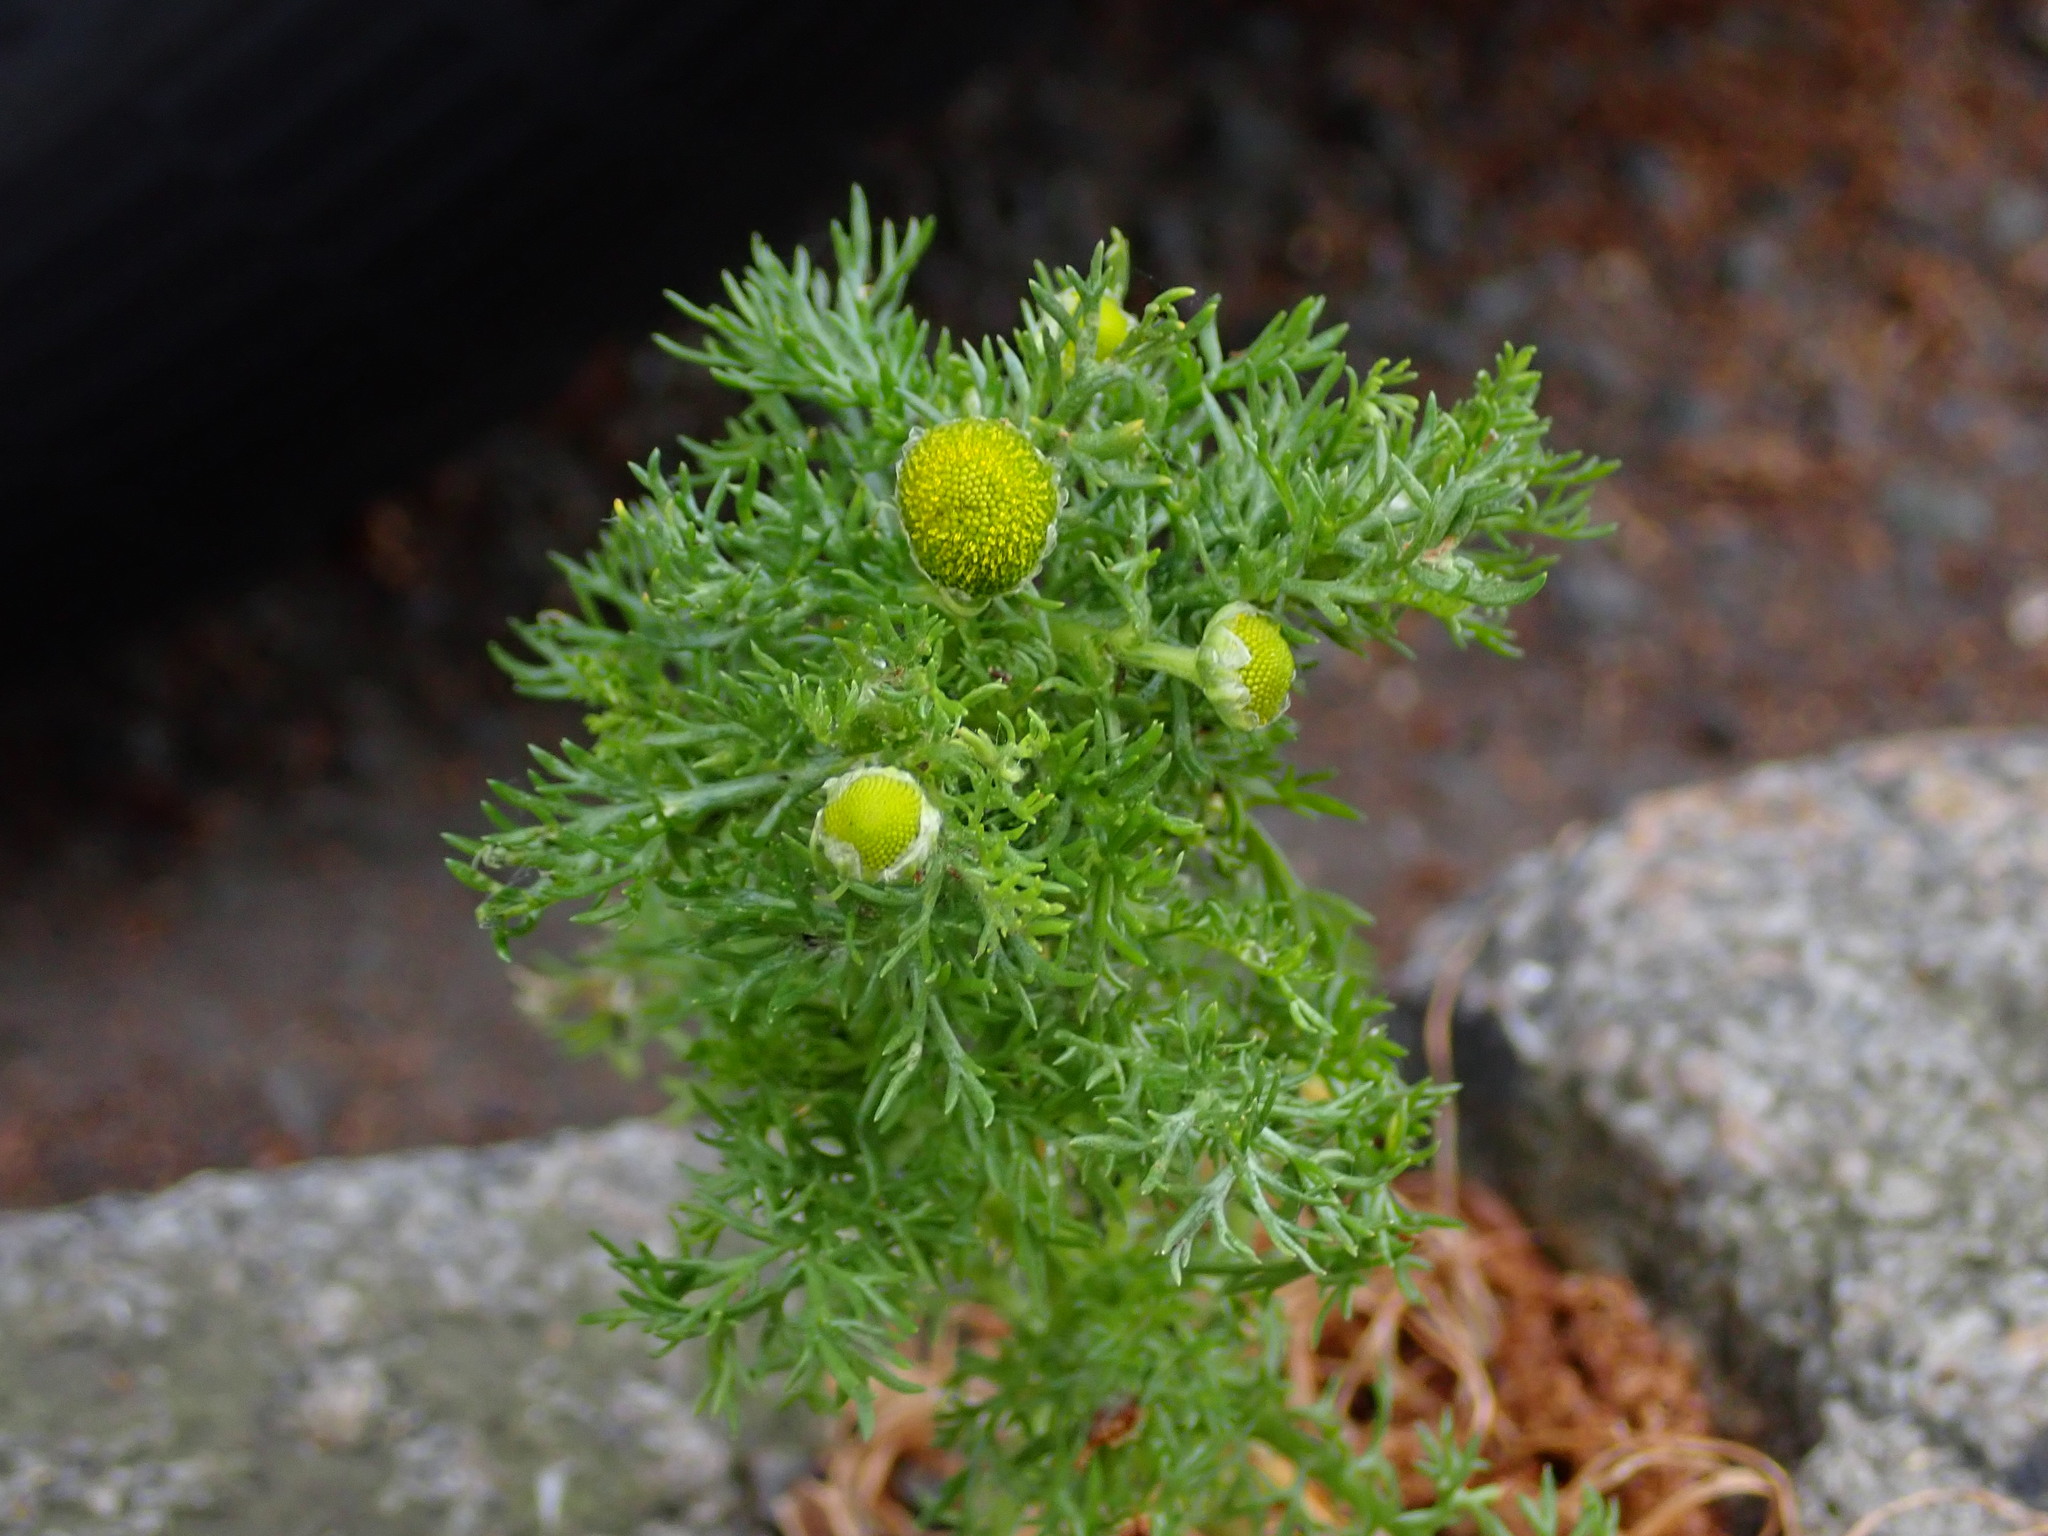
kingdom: Plantae
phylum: Tracheophyta
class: Magnoliopsida
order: Asterales
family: Asteraceae
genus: Matricaria
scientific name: Matricaria discoidea
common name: Disc mayweed
